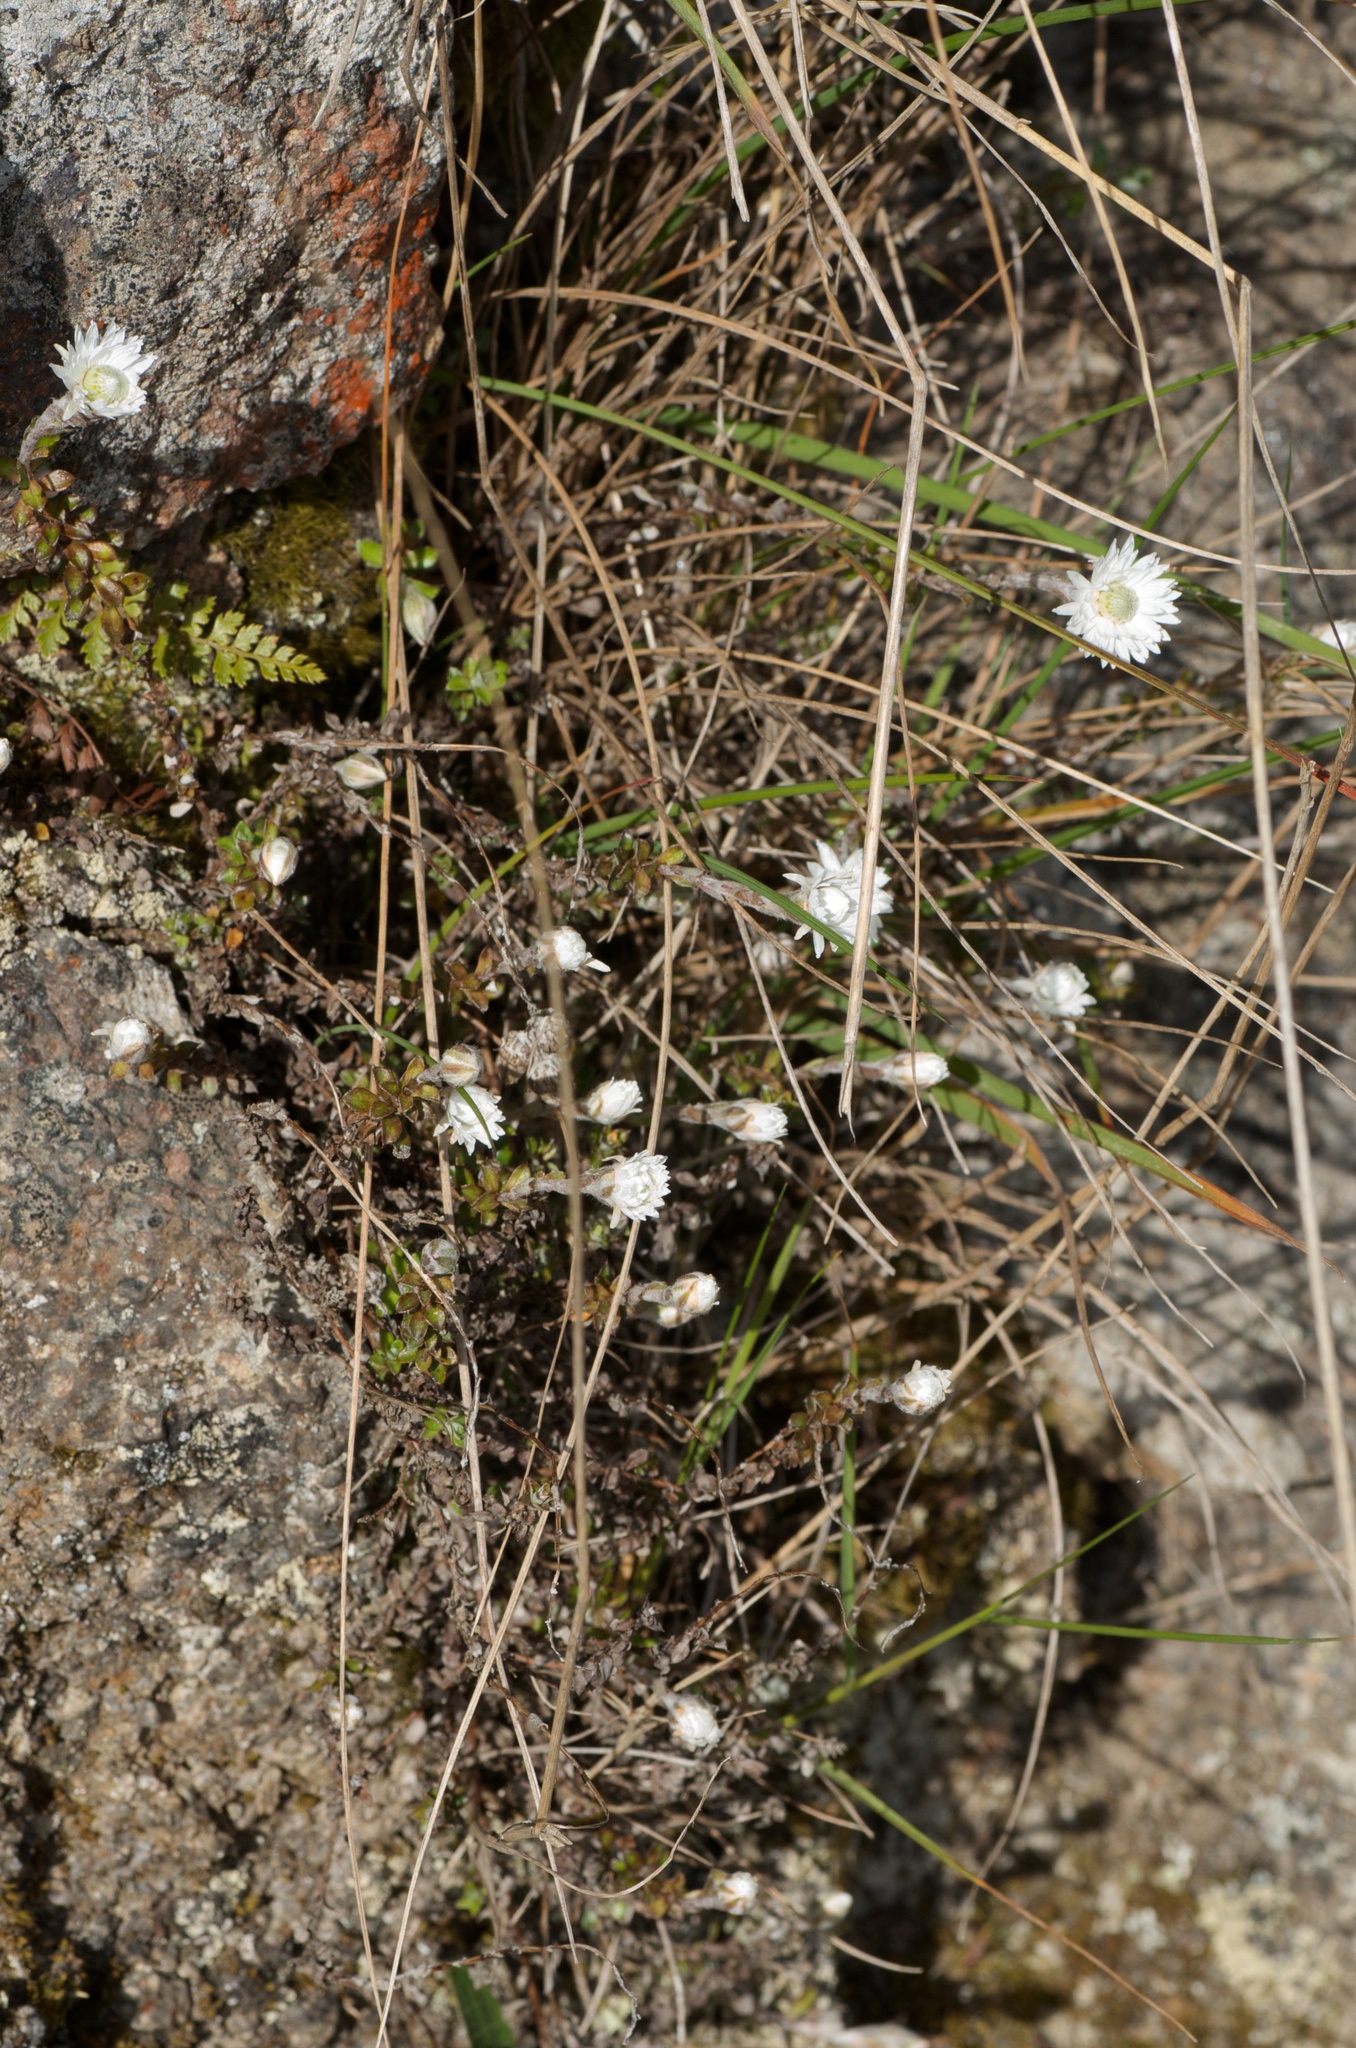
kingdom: Plantae
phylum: Tracheophyta
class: Magnoliopsida
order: Asterales
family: Asteraceae
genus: Anaphalioides
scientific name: Anaphalioides bellidioides
